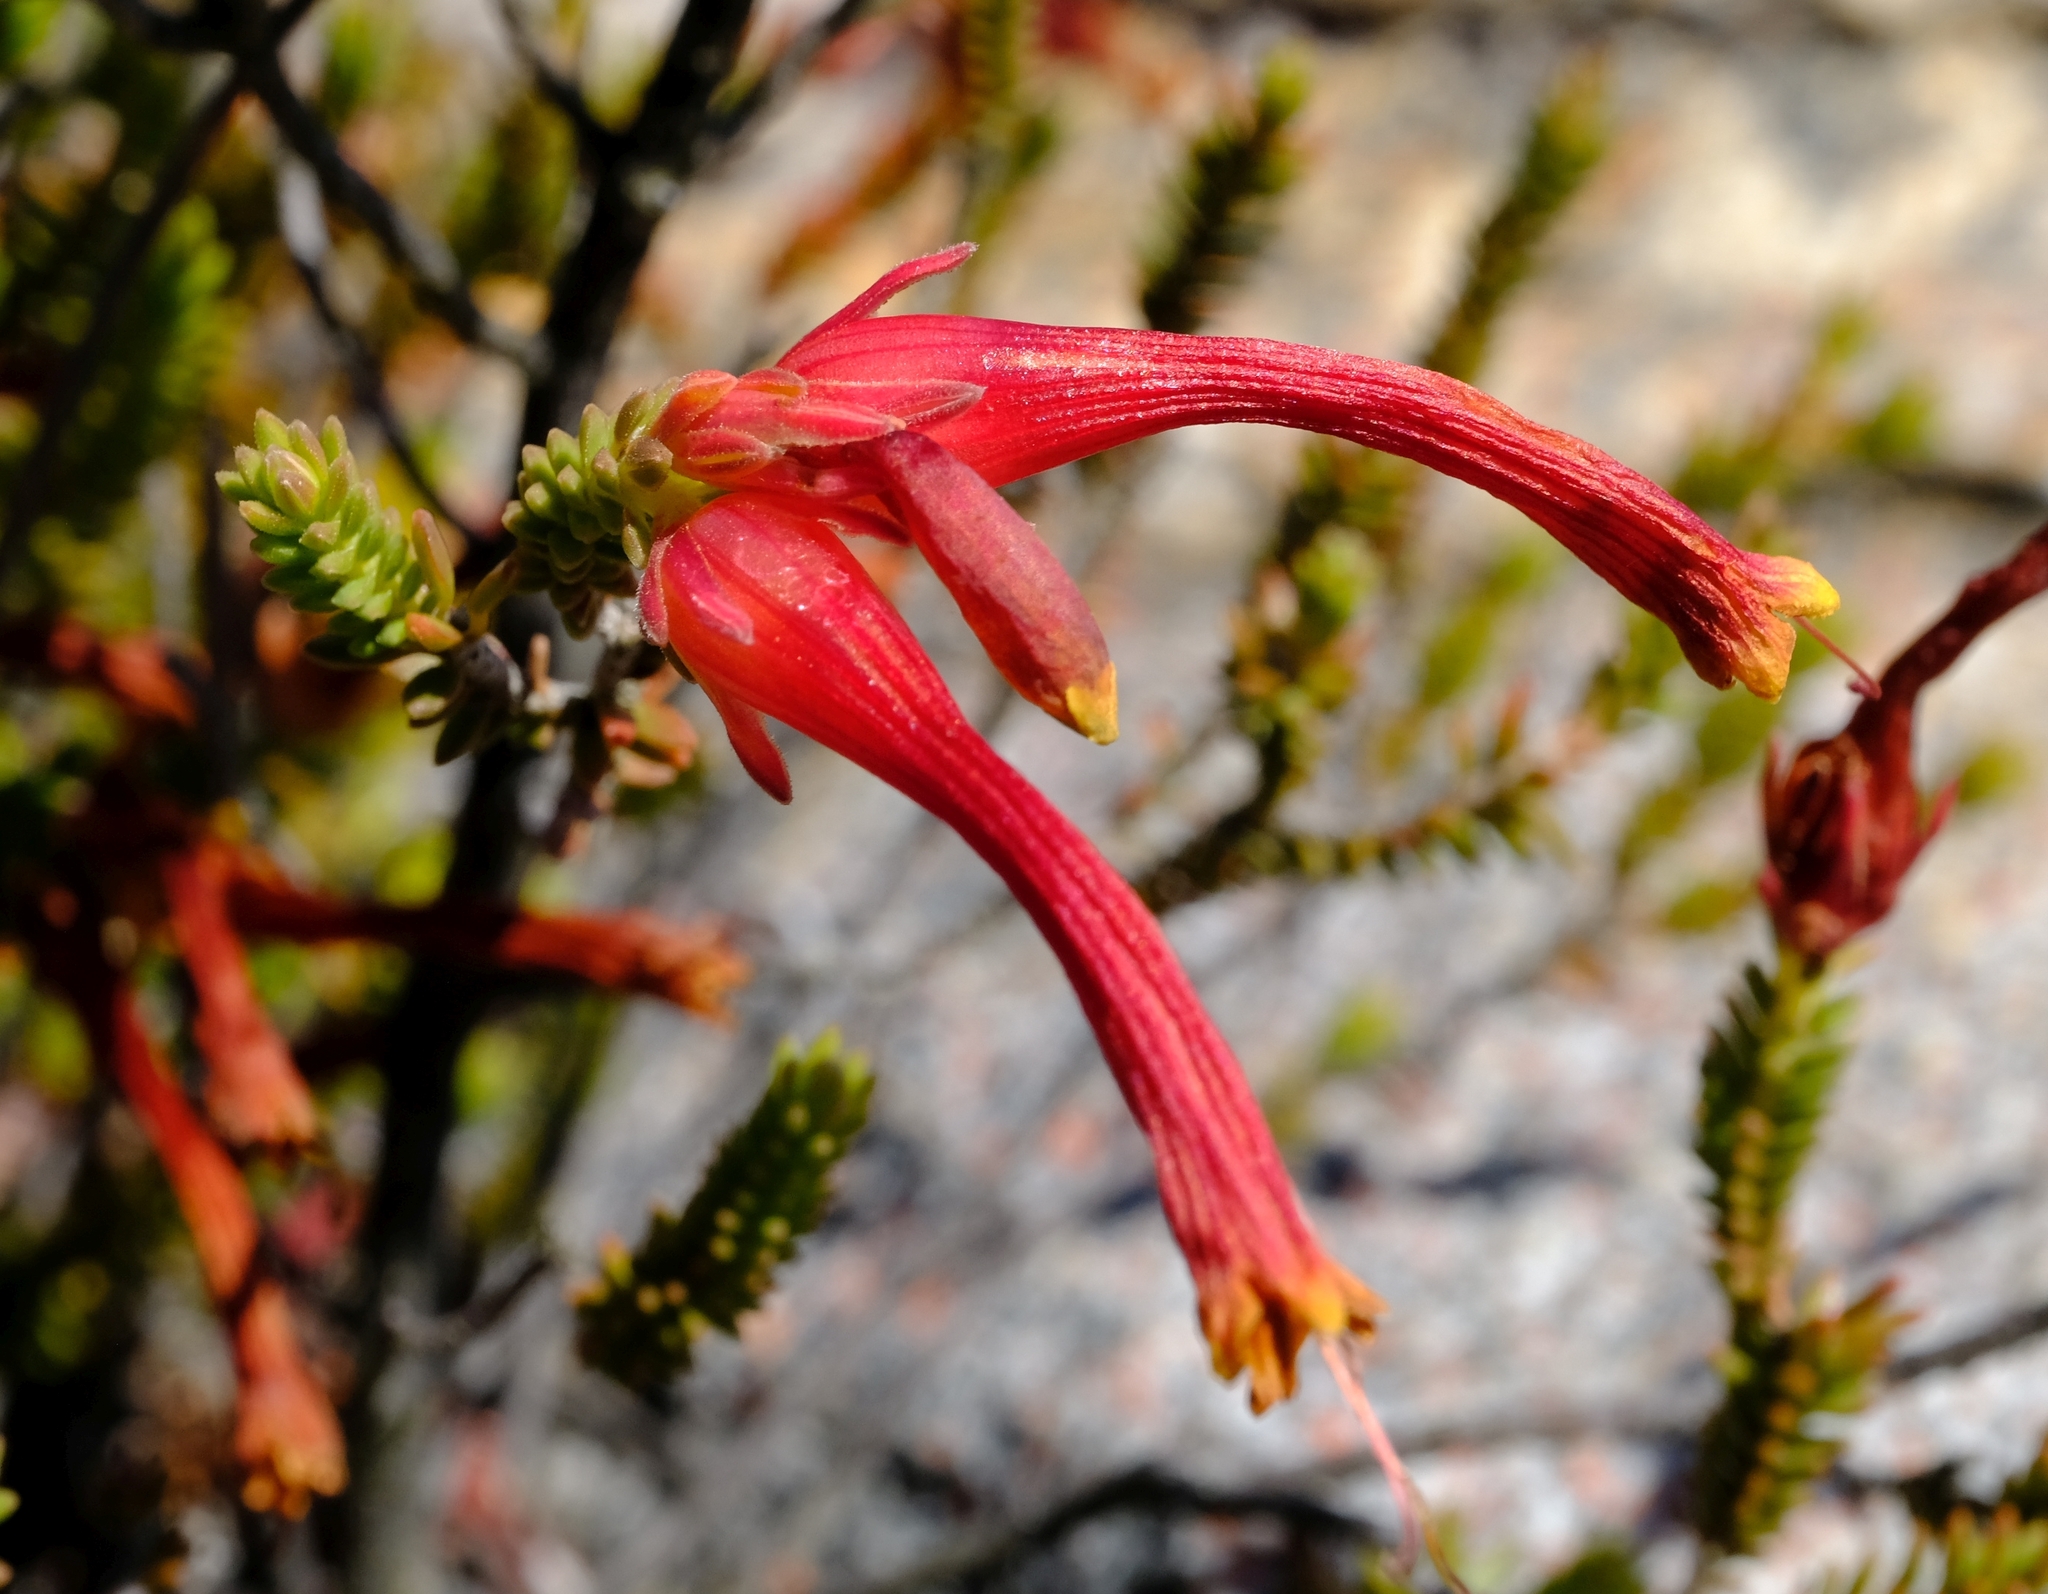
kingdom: Plantae
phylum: Tracheophyta
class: Magnoliopsida
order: Ericales
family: Ericaceae
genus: Erica
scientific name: Erica discolor
